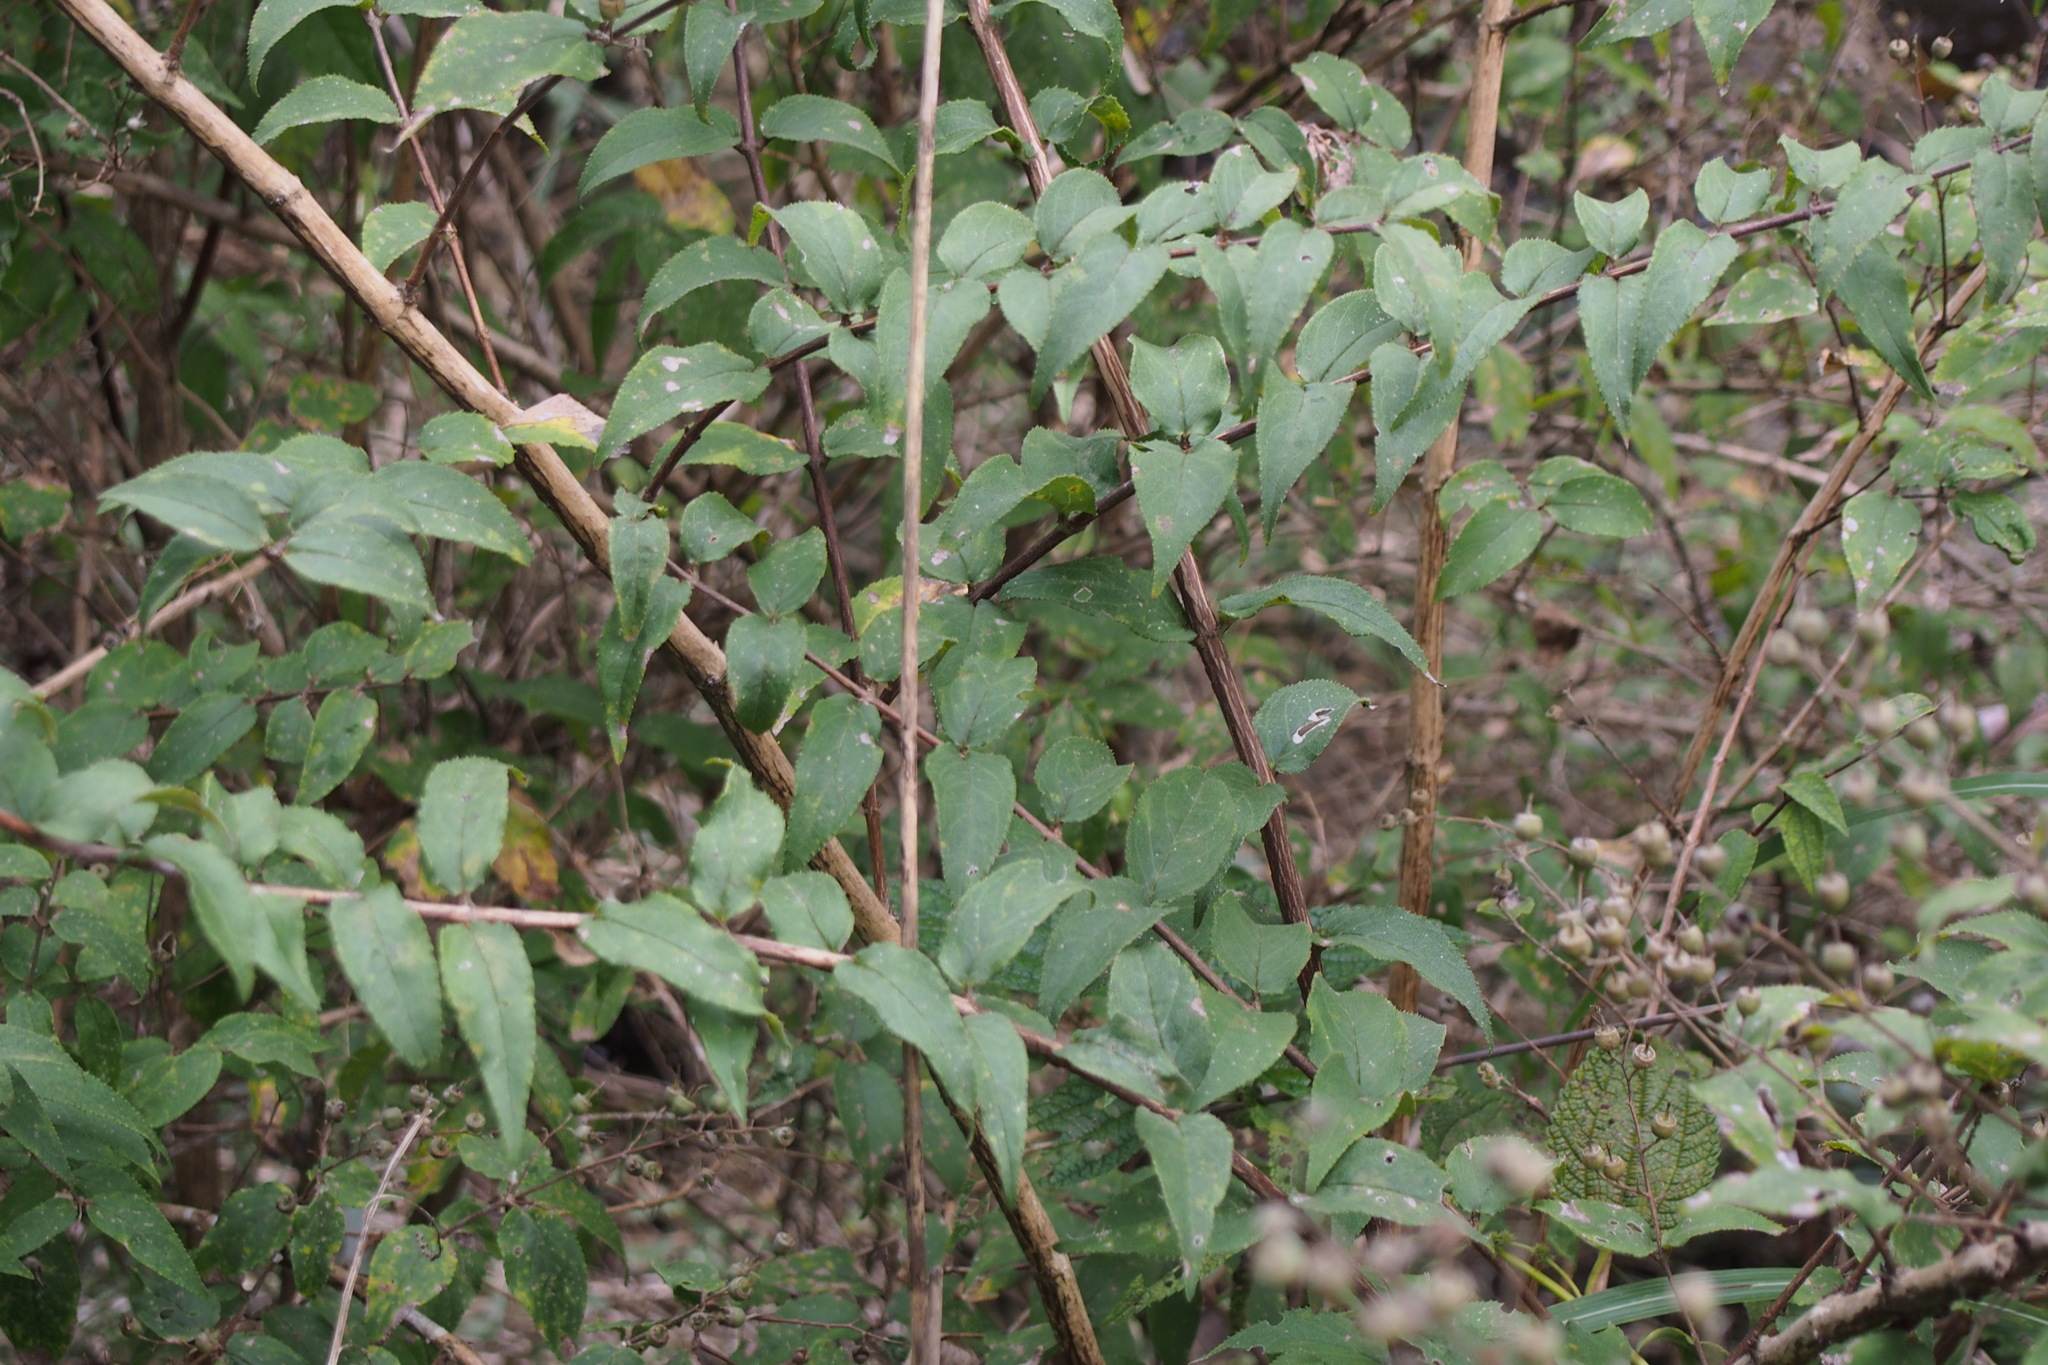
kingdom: Plantae
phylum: Tracheophyta
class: Magnoliopsida
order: Cornales
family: Hydrangeaceae
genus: Deutzia
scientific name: Deutzia crenata
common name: Deutzia
